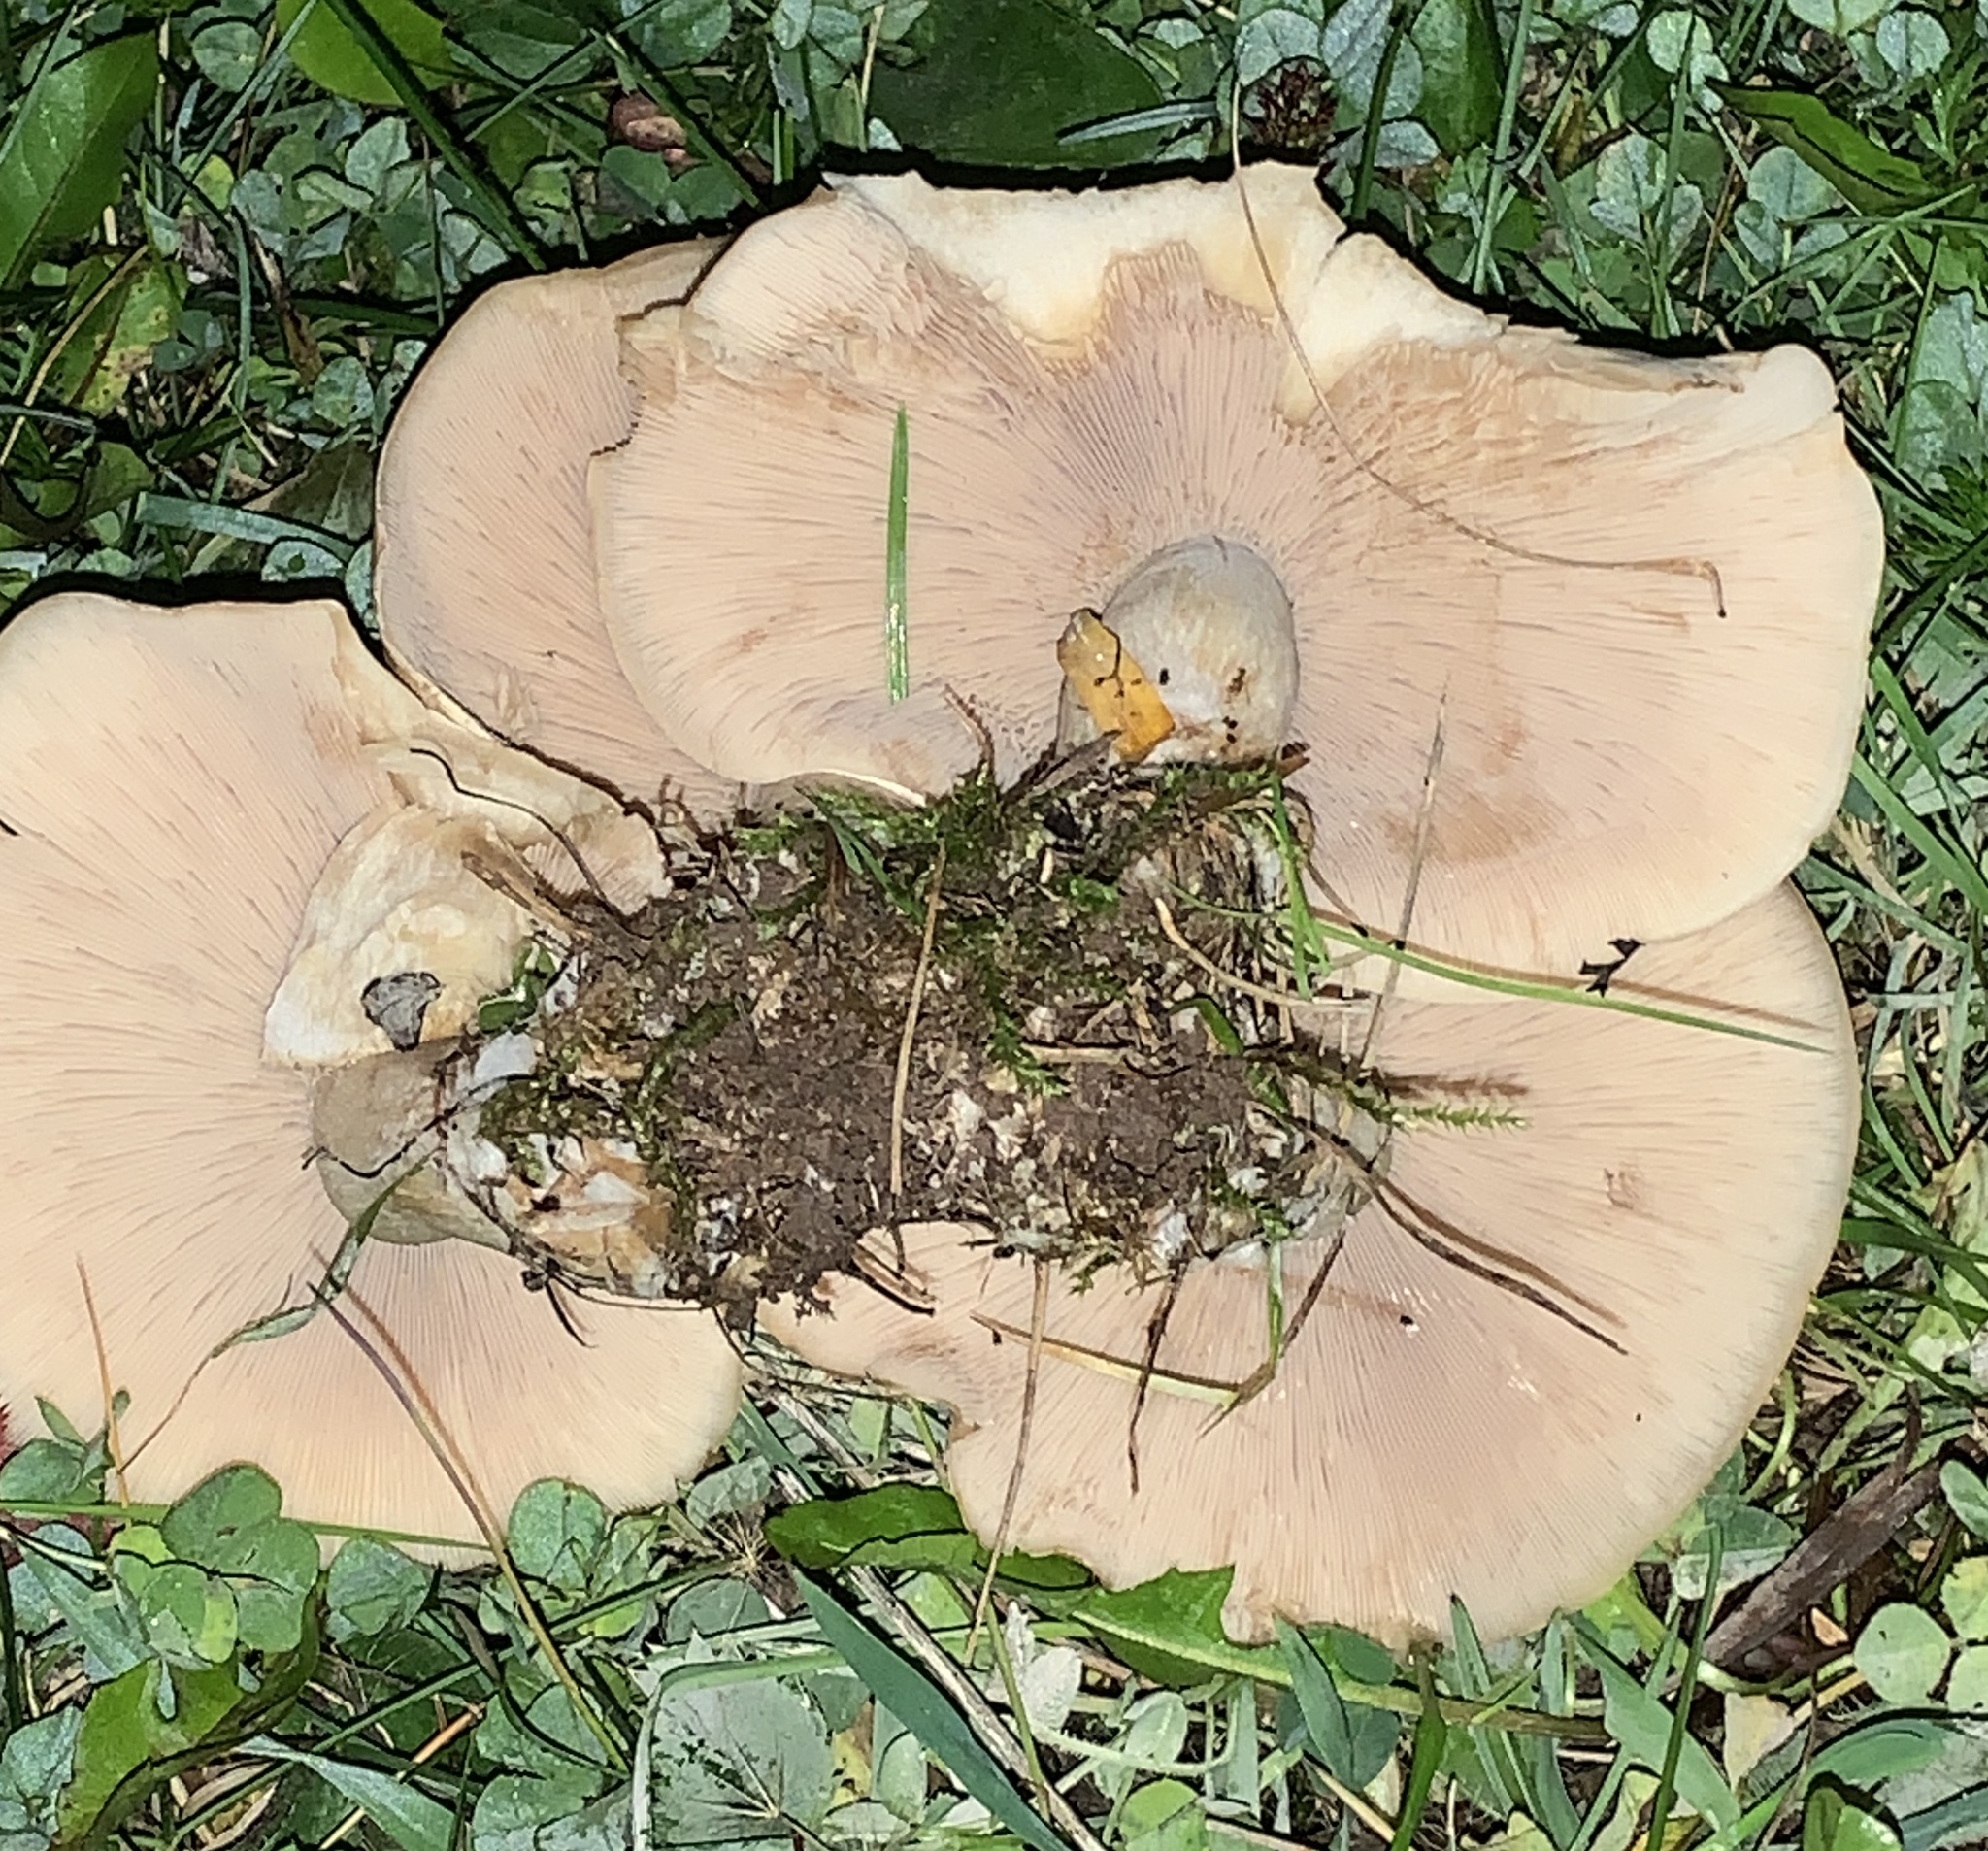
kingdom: Fungi
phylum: Basidiomycota
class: Agaricomycetes
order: Agaricales
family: Tricholomataceae
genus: Collybia
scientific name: Collybia
